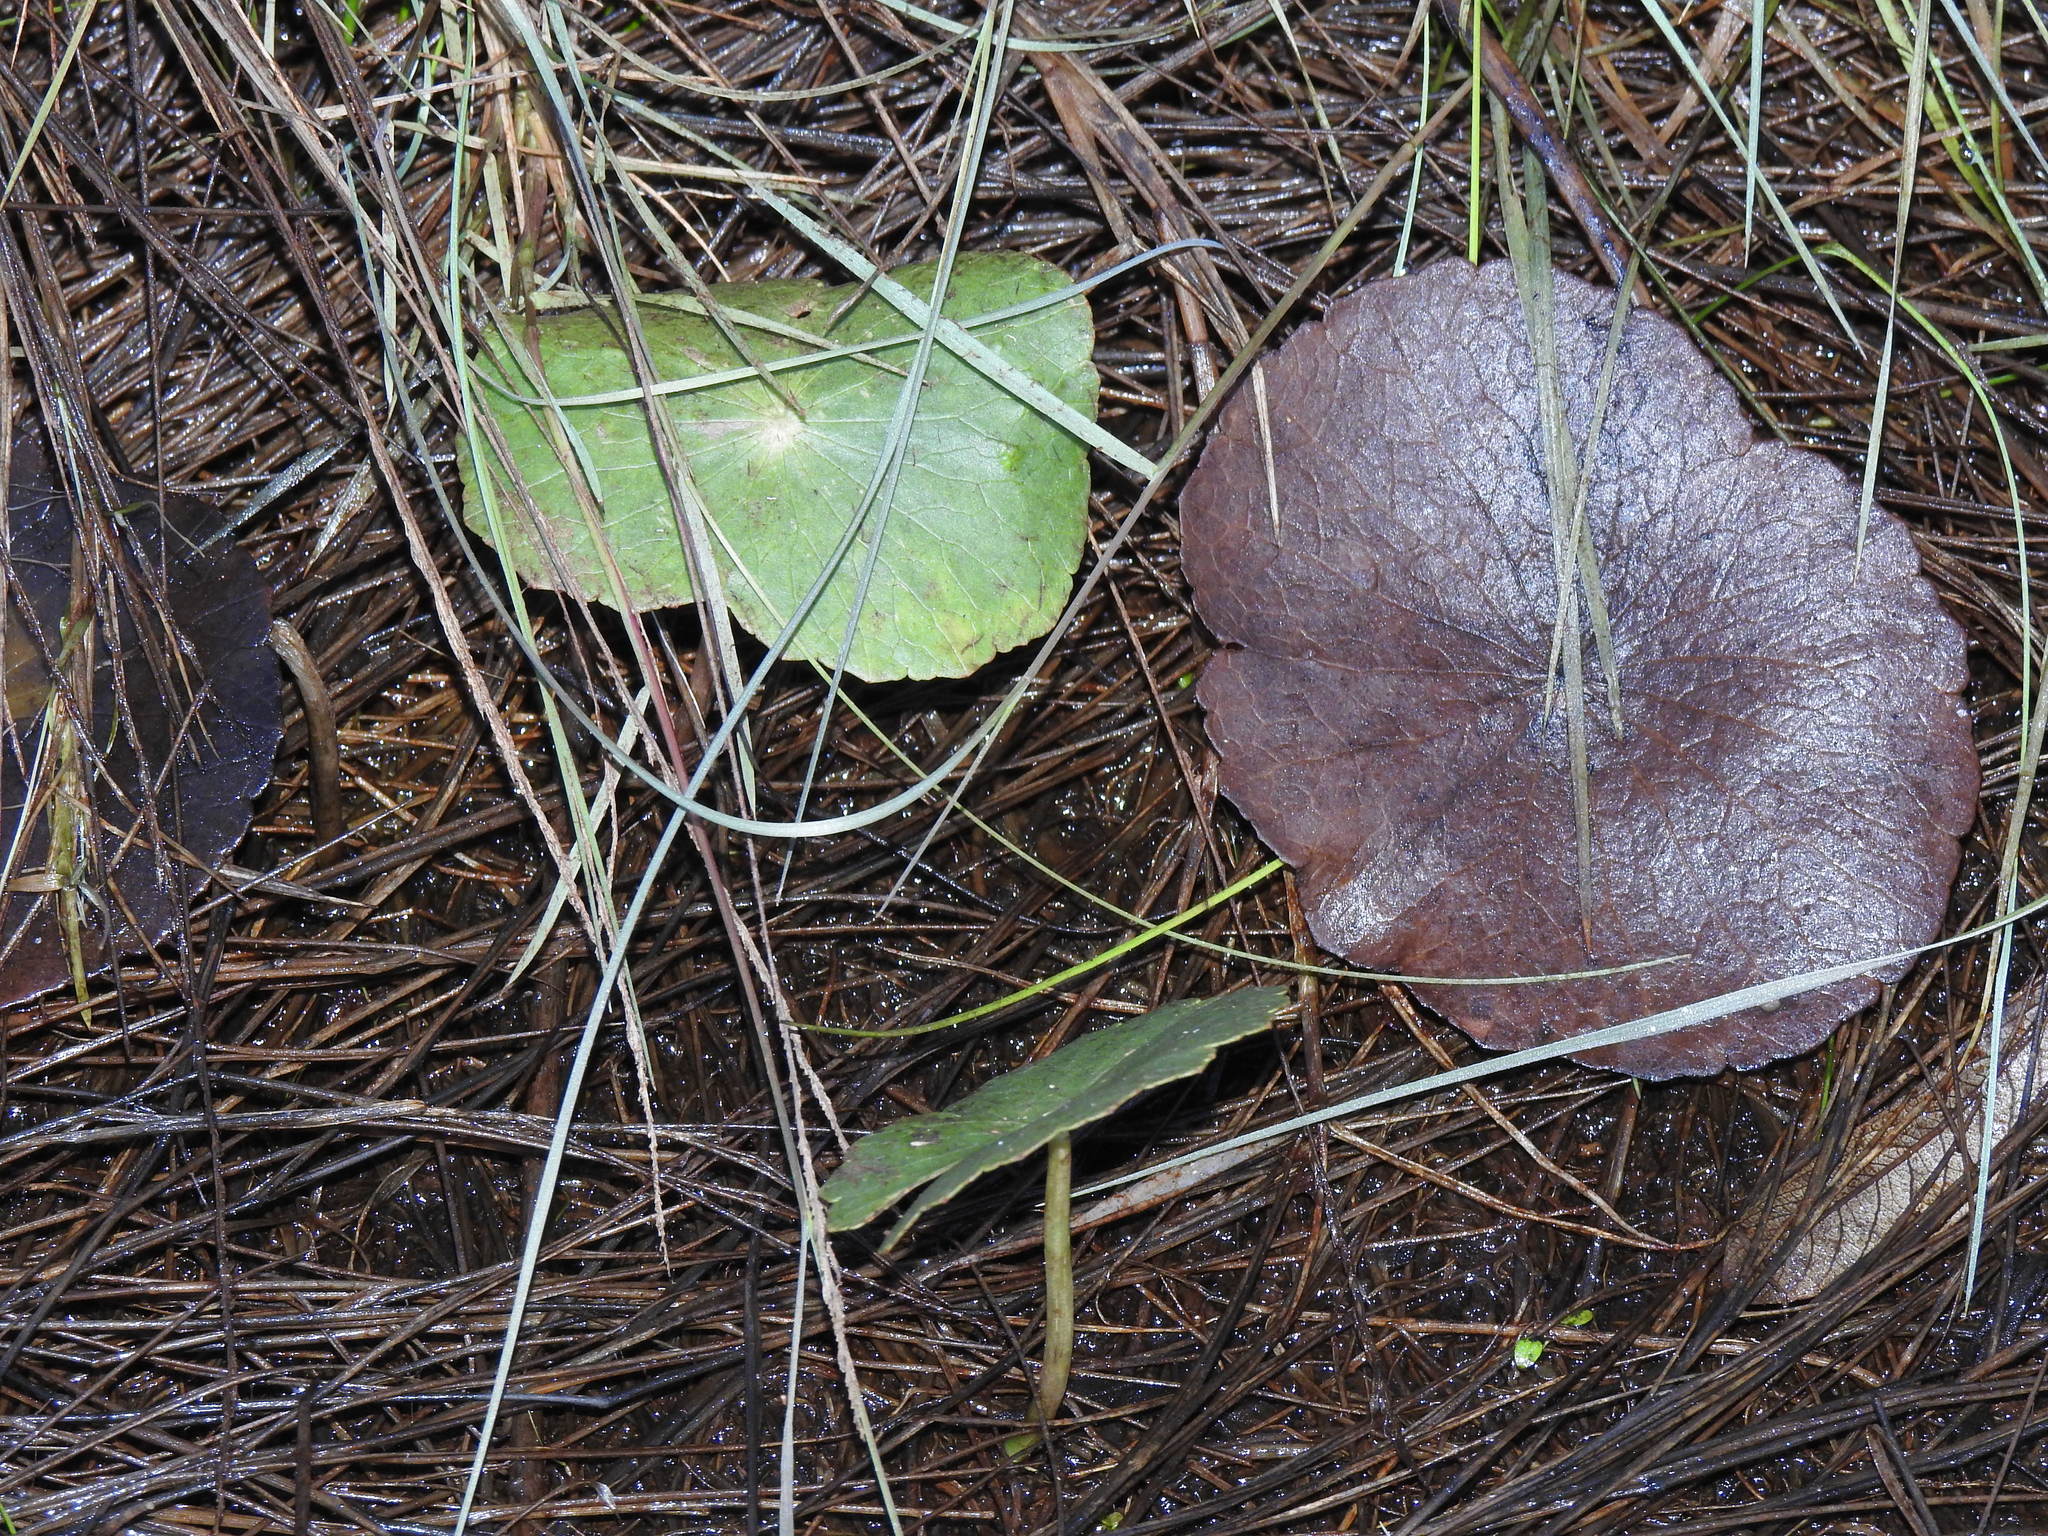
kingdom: Plantae
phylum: Tracheophyta
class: Magnoliopsida
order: Apiales
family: Araliaceae
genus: Hydrocotyle
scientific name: Hydrocotyle bonariensis
